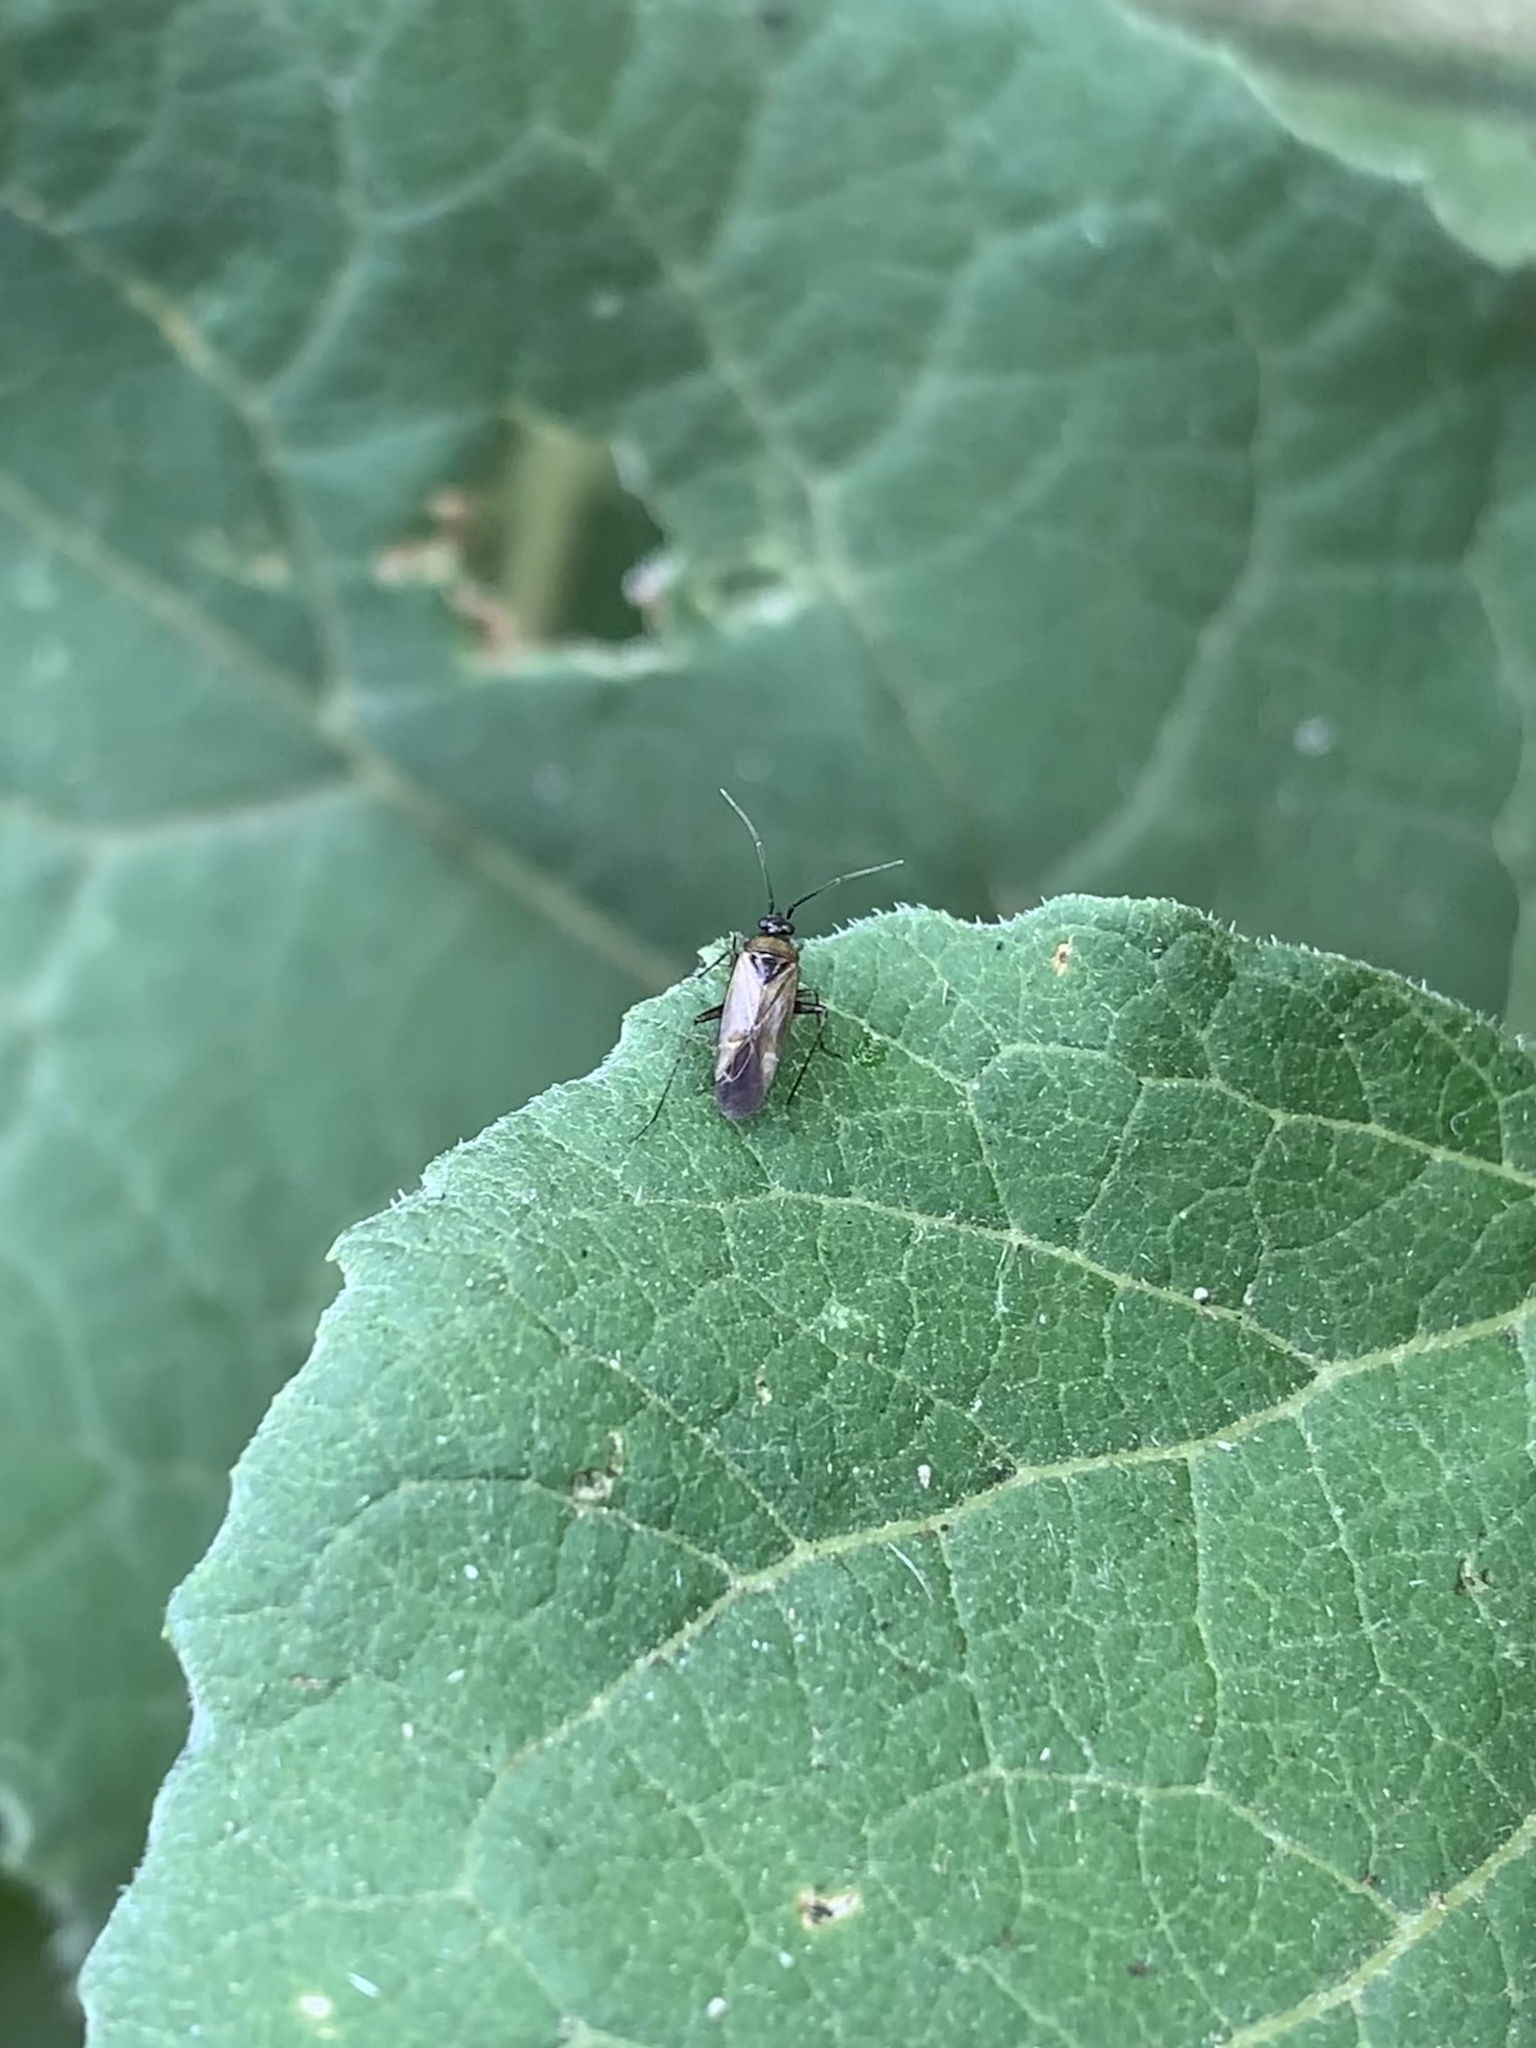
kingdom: Animalia
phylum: Arthropoda
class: Insecta
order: Hemiptera
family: Miridae
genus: Plagiognathus
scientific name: Plagiognathus arbustorum
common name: Plant bug
